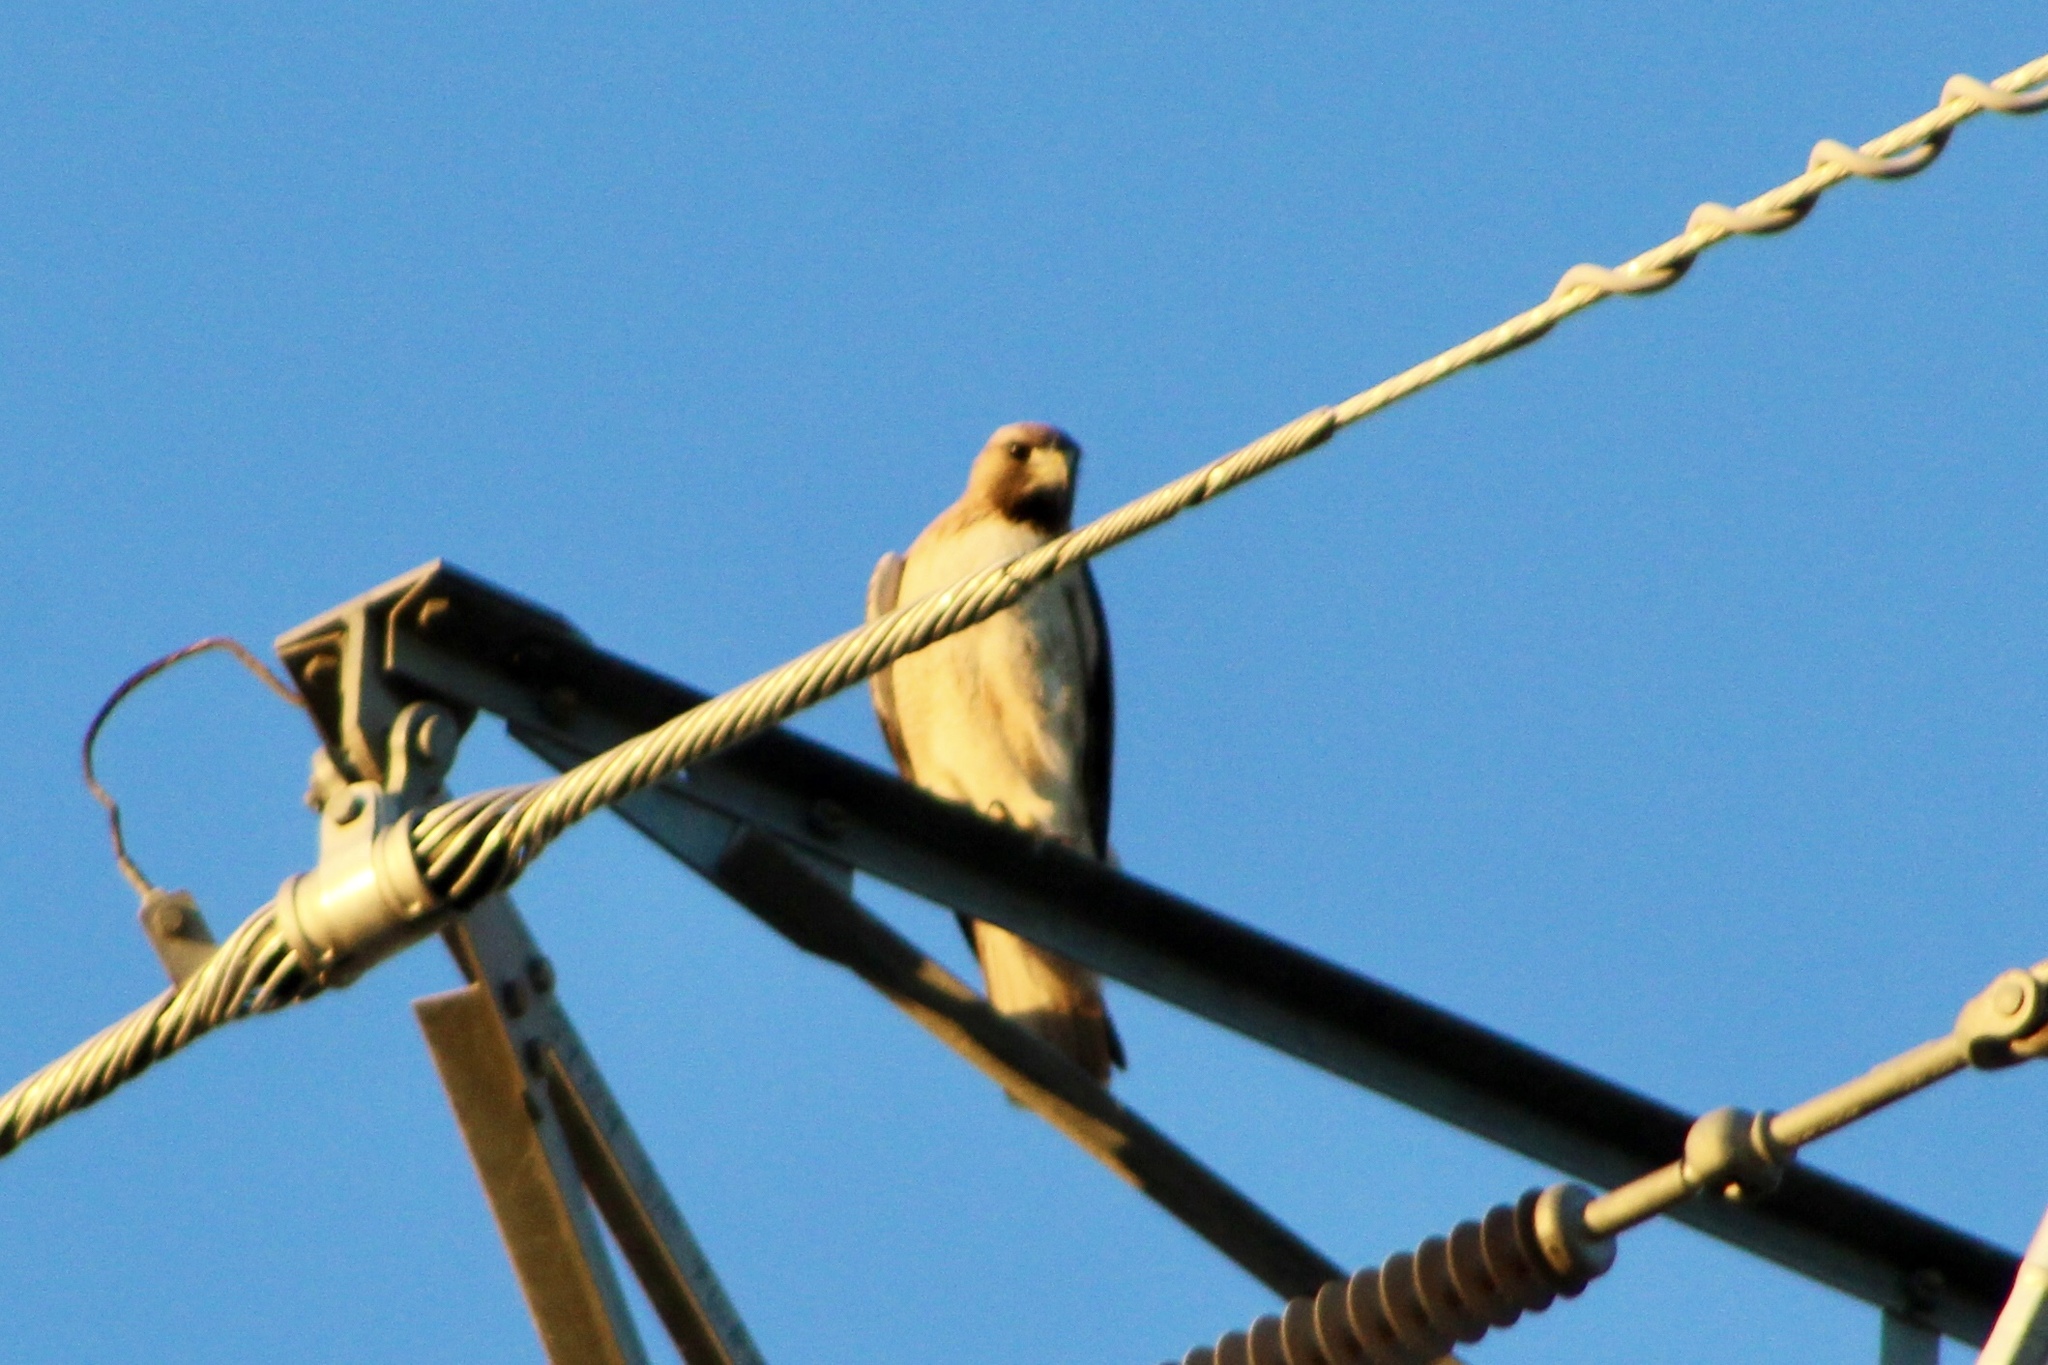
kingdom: Animalia
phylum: Chordata
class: Aves
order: Accipitriformes
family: Accipitridae
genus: Buteo
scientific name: Buteo jamaicensis
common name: Red-tailed hawk
